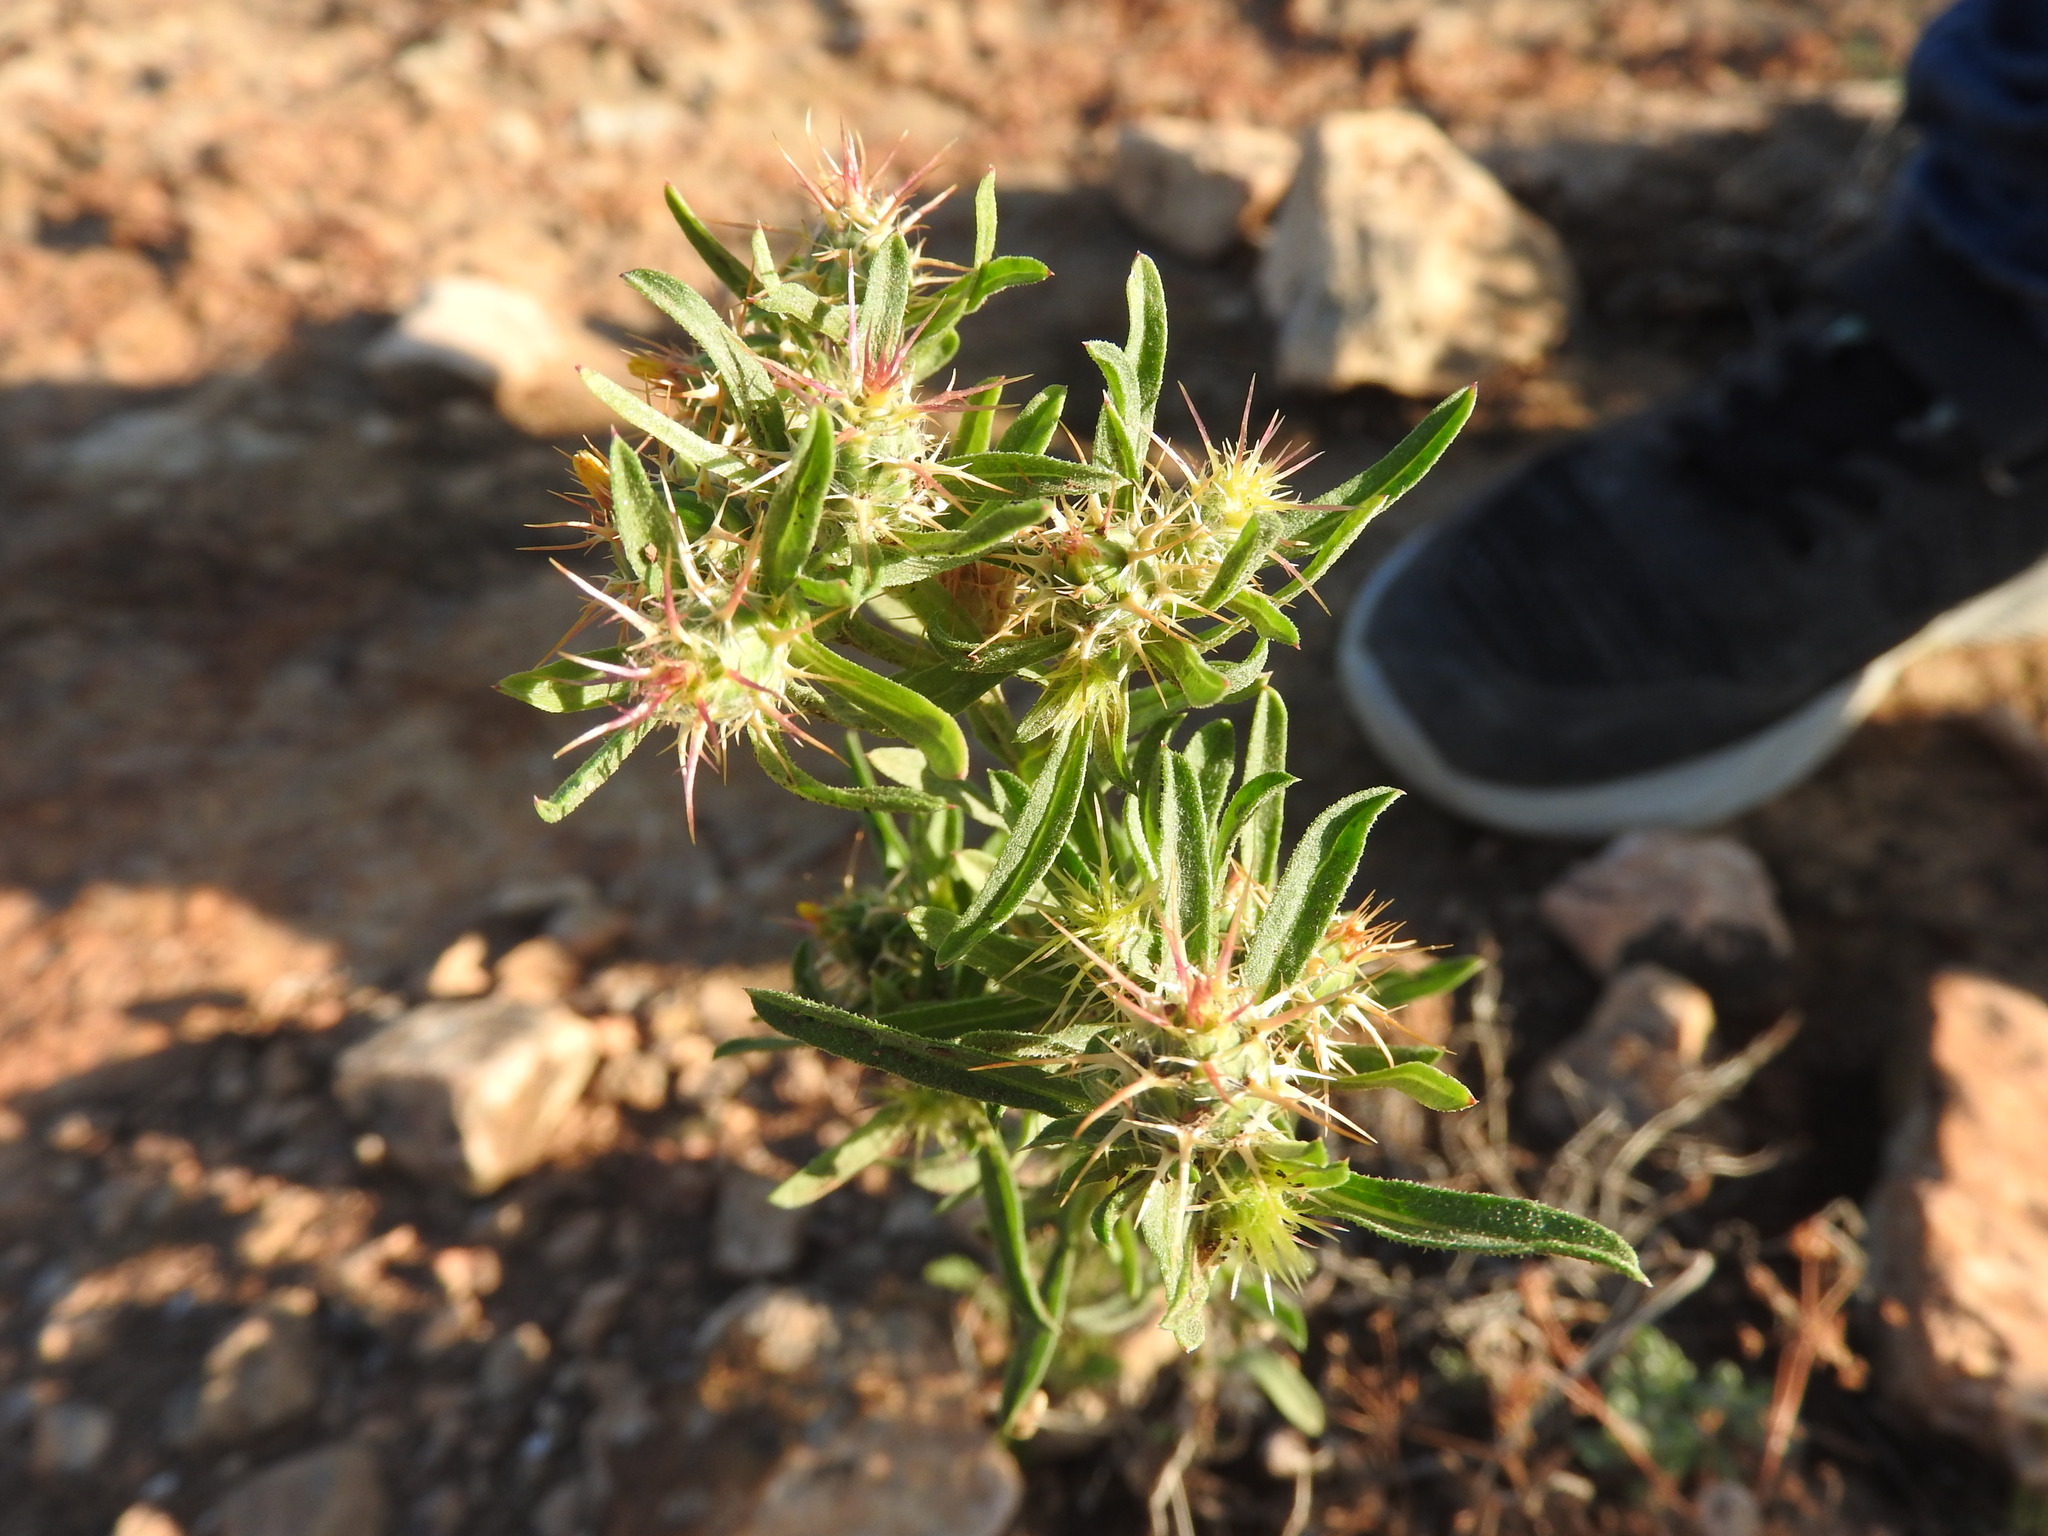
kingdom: Plantae
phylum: Tracheophyta
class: Magnoliopsida
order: Asterales
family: Asteraceae
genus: Centaurea
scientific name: Centaurea melitensis
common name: Maltese star-thistle
